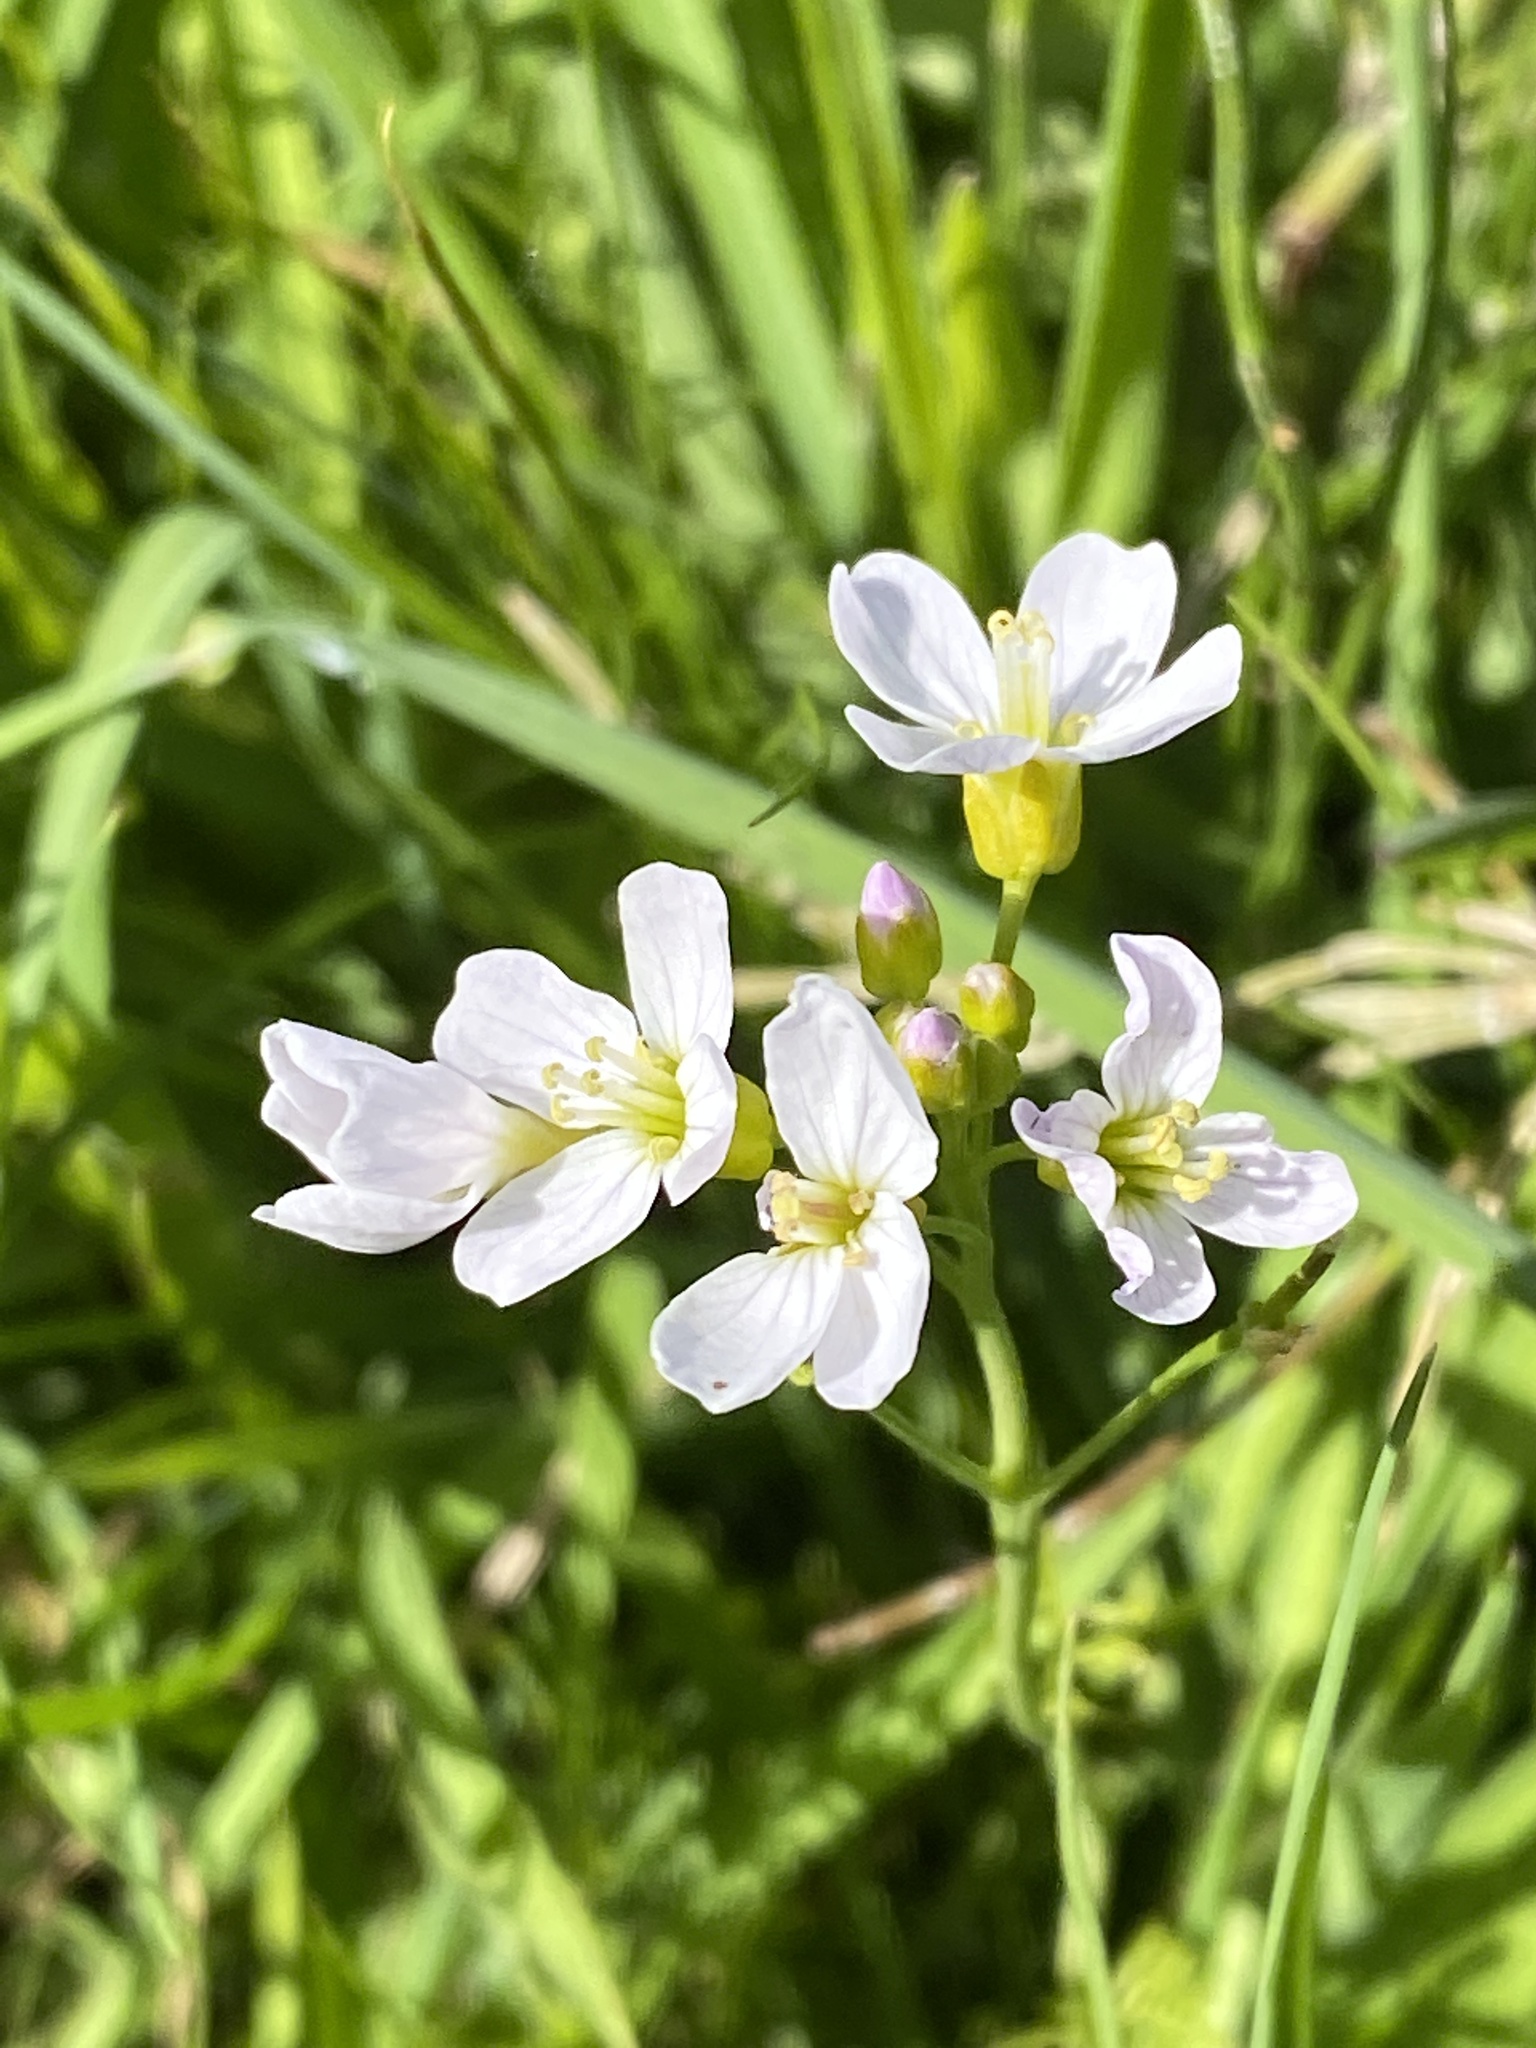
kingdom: Plantae
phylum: Tracheophyta
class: Magnoliopsida
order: Brassicales
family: Brassicaceae
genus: Cardamine
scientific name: Cardamine pratensis
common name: Cuckoo flower
